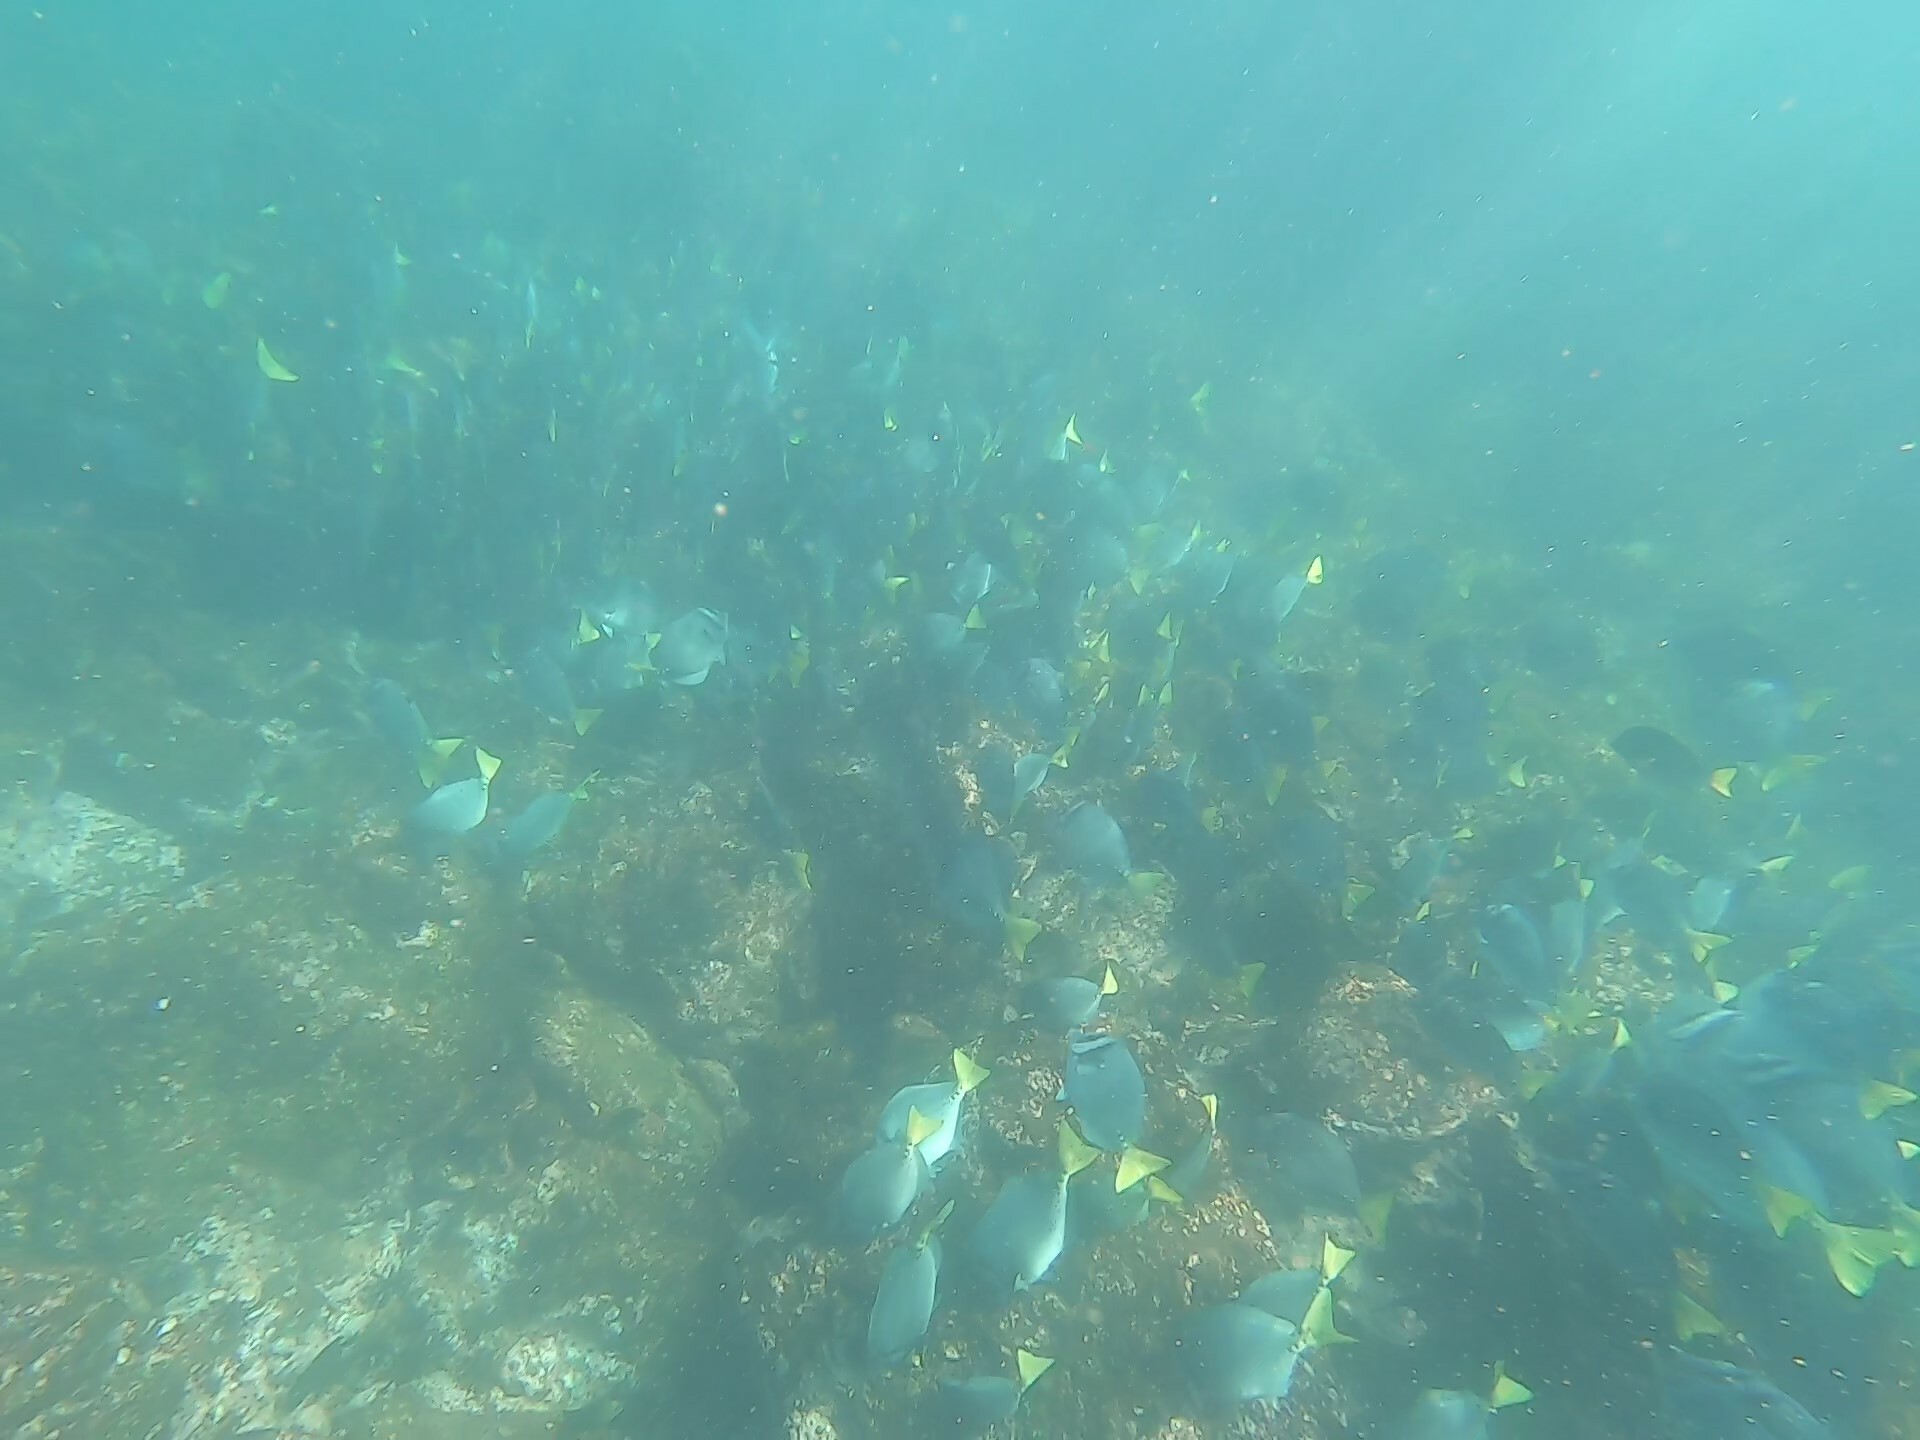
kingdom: Animalia
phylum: Chordata
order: Perciformes
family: Acanthuridae
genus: Prionurus
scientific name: Prionurus laticlavius
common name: Razor surgeonfish
